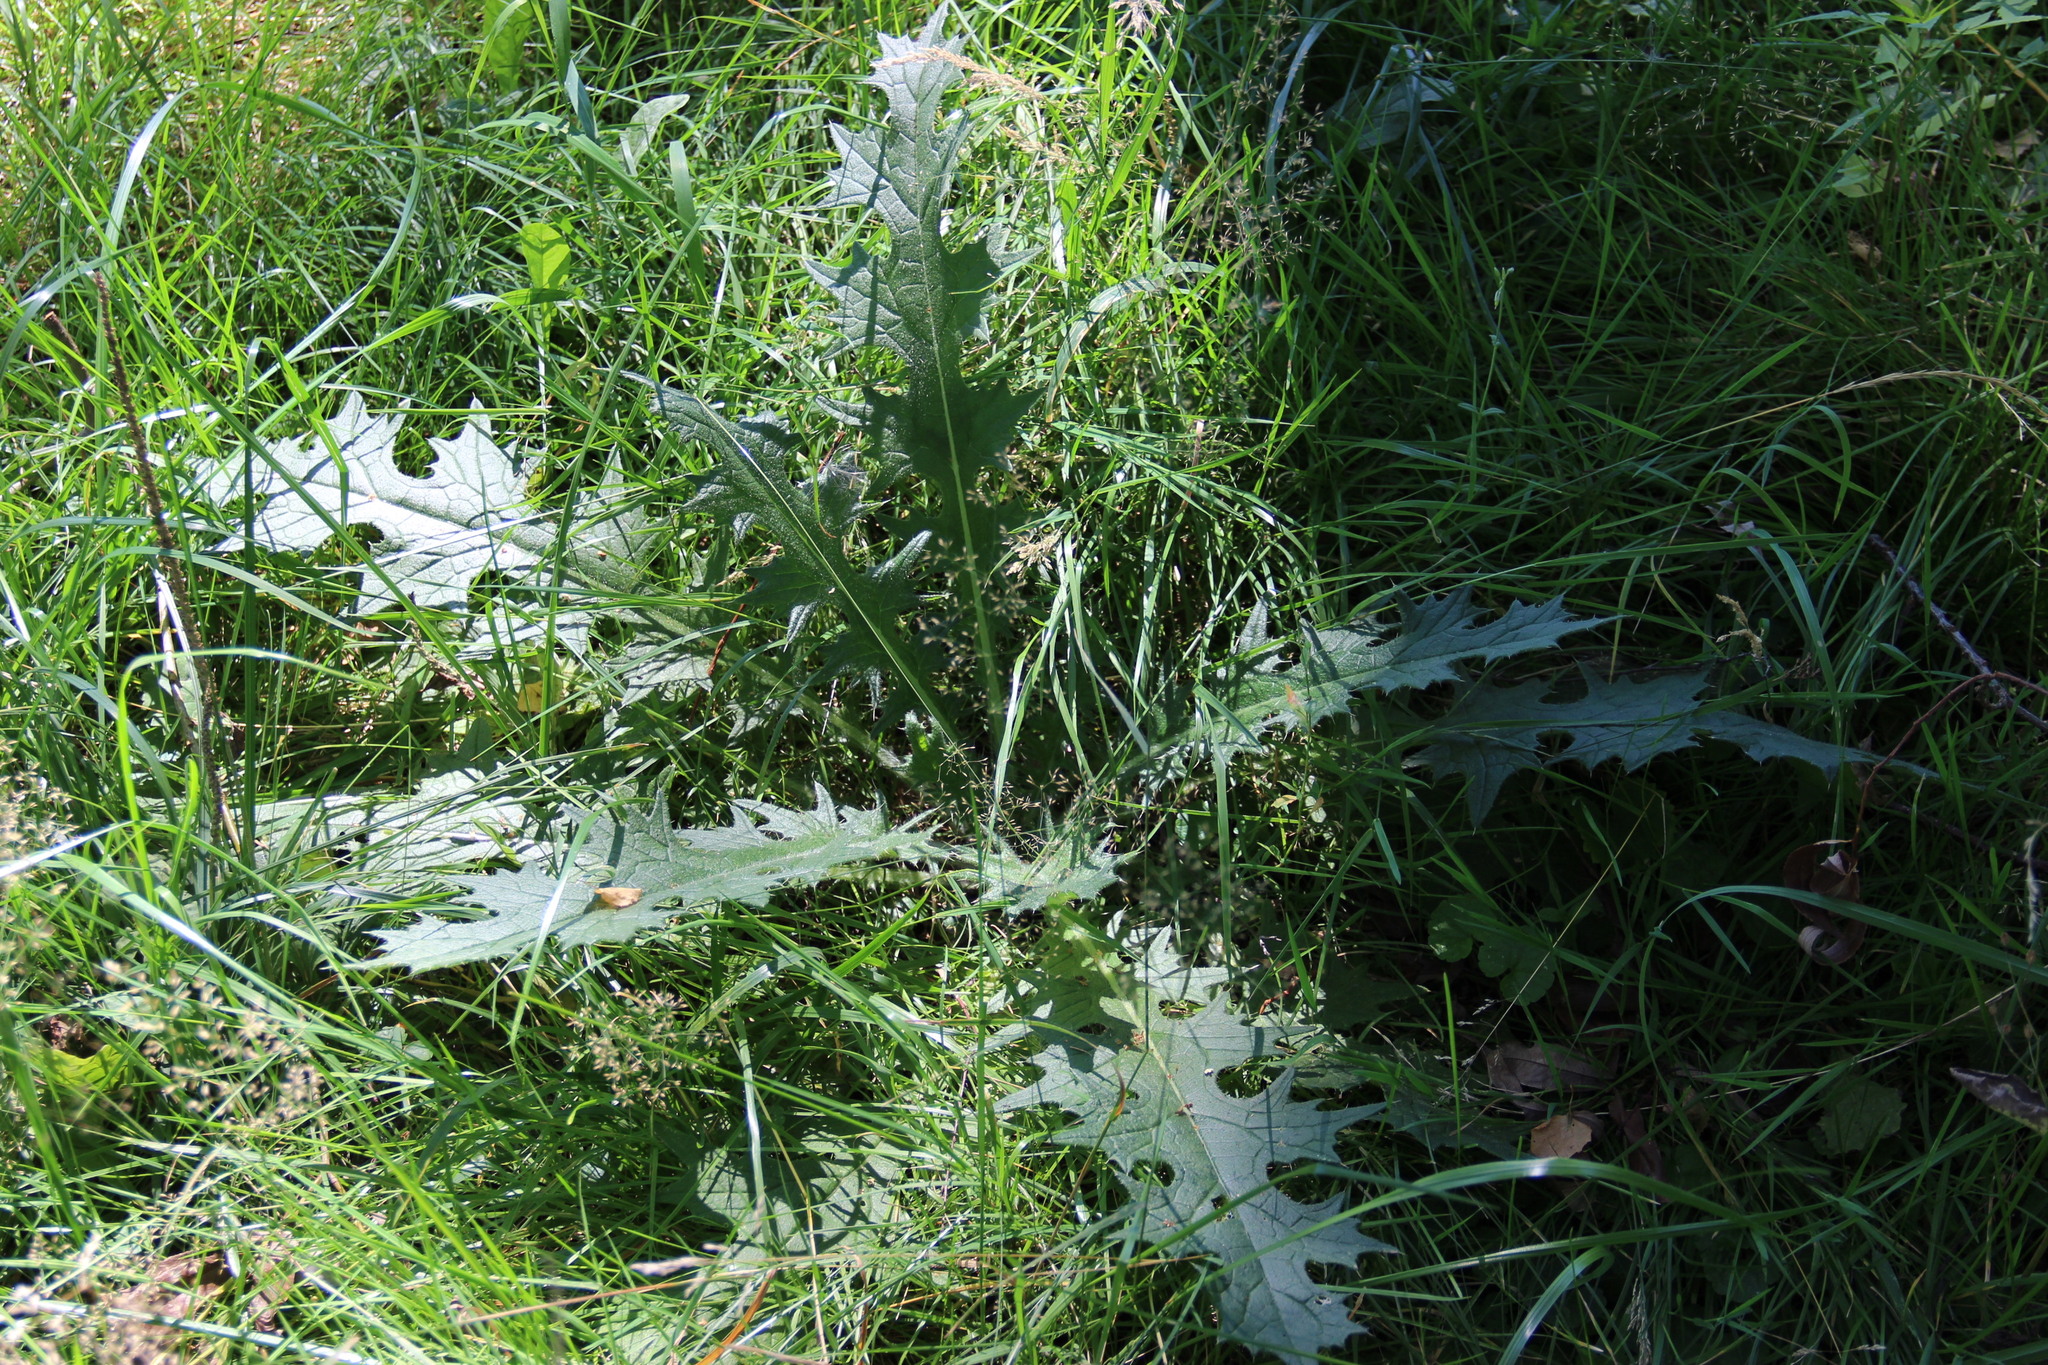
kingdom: Plantae
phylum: Tracheophyta
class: Magnoliopsida
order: Asterales
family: Asteraceae
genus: Cirsium
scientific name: Cirsium vulgare
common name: Bull thistle
